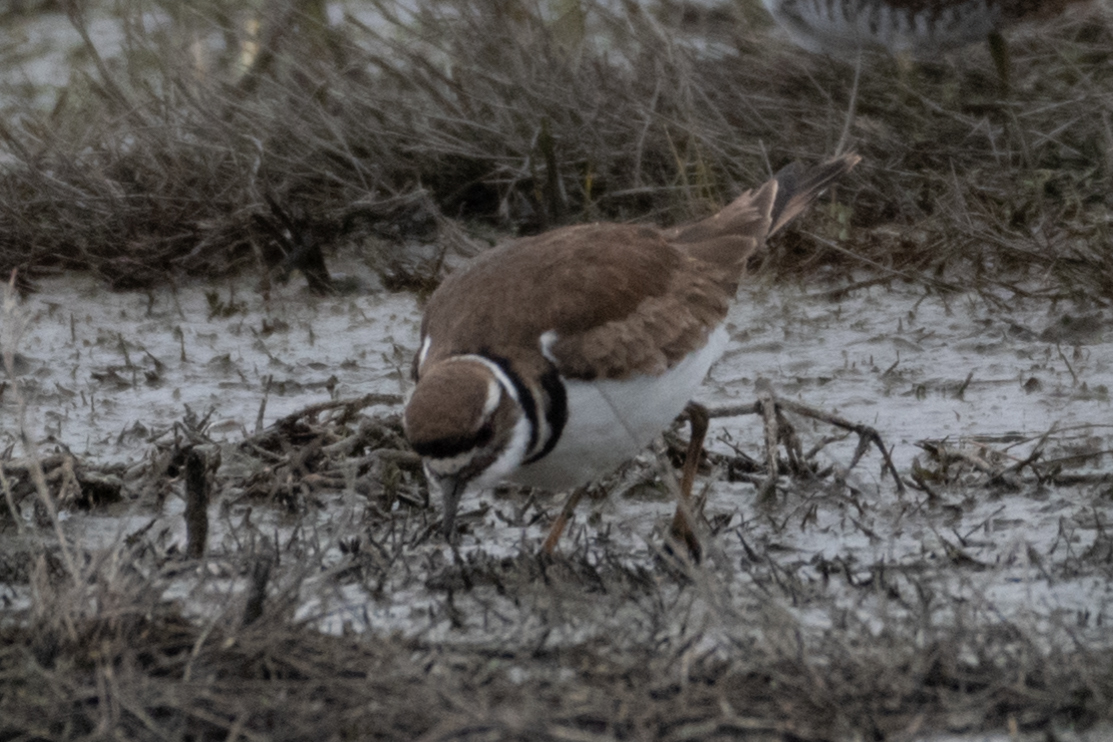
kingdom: Animalia
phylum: Chordata
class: Aves
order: Charadriiformes
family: Charadriidae
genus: Charadrius
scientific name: Charadrius vociferus
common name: Killdeer
